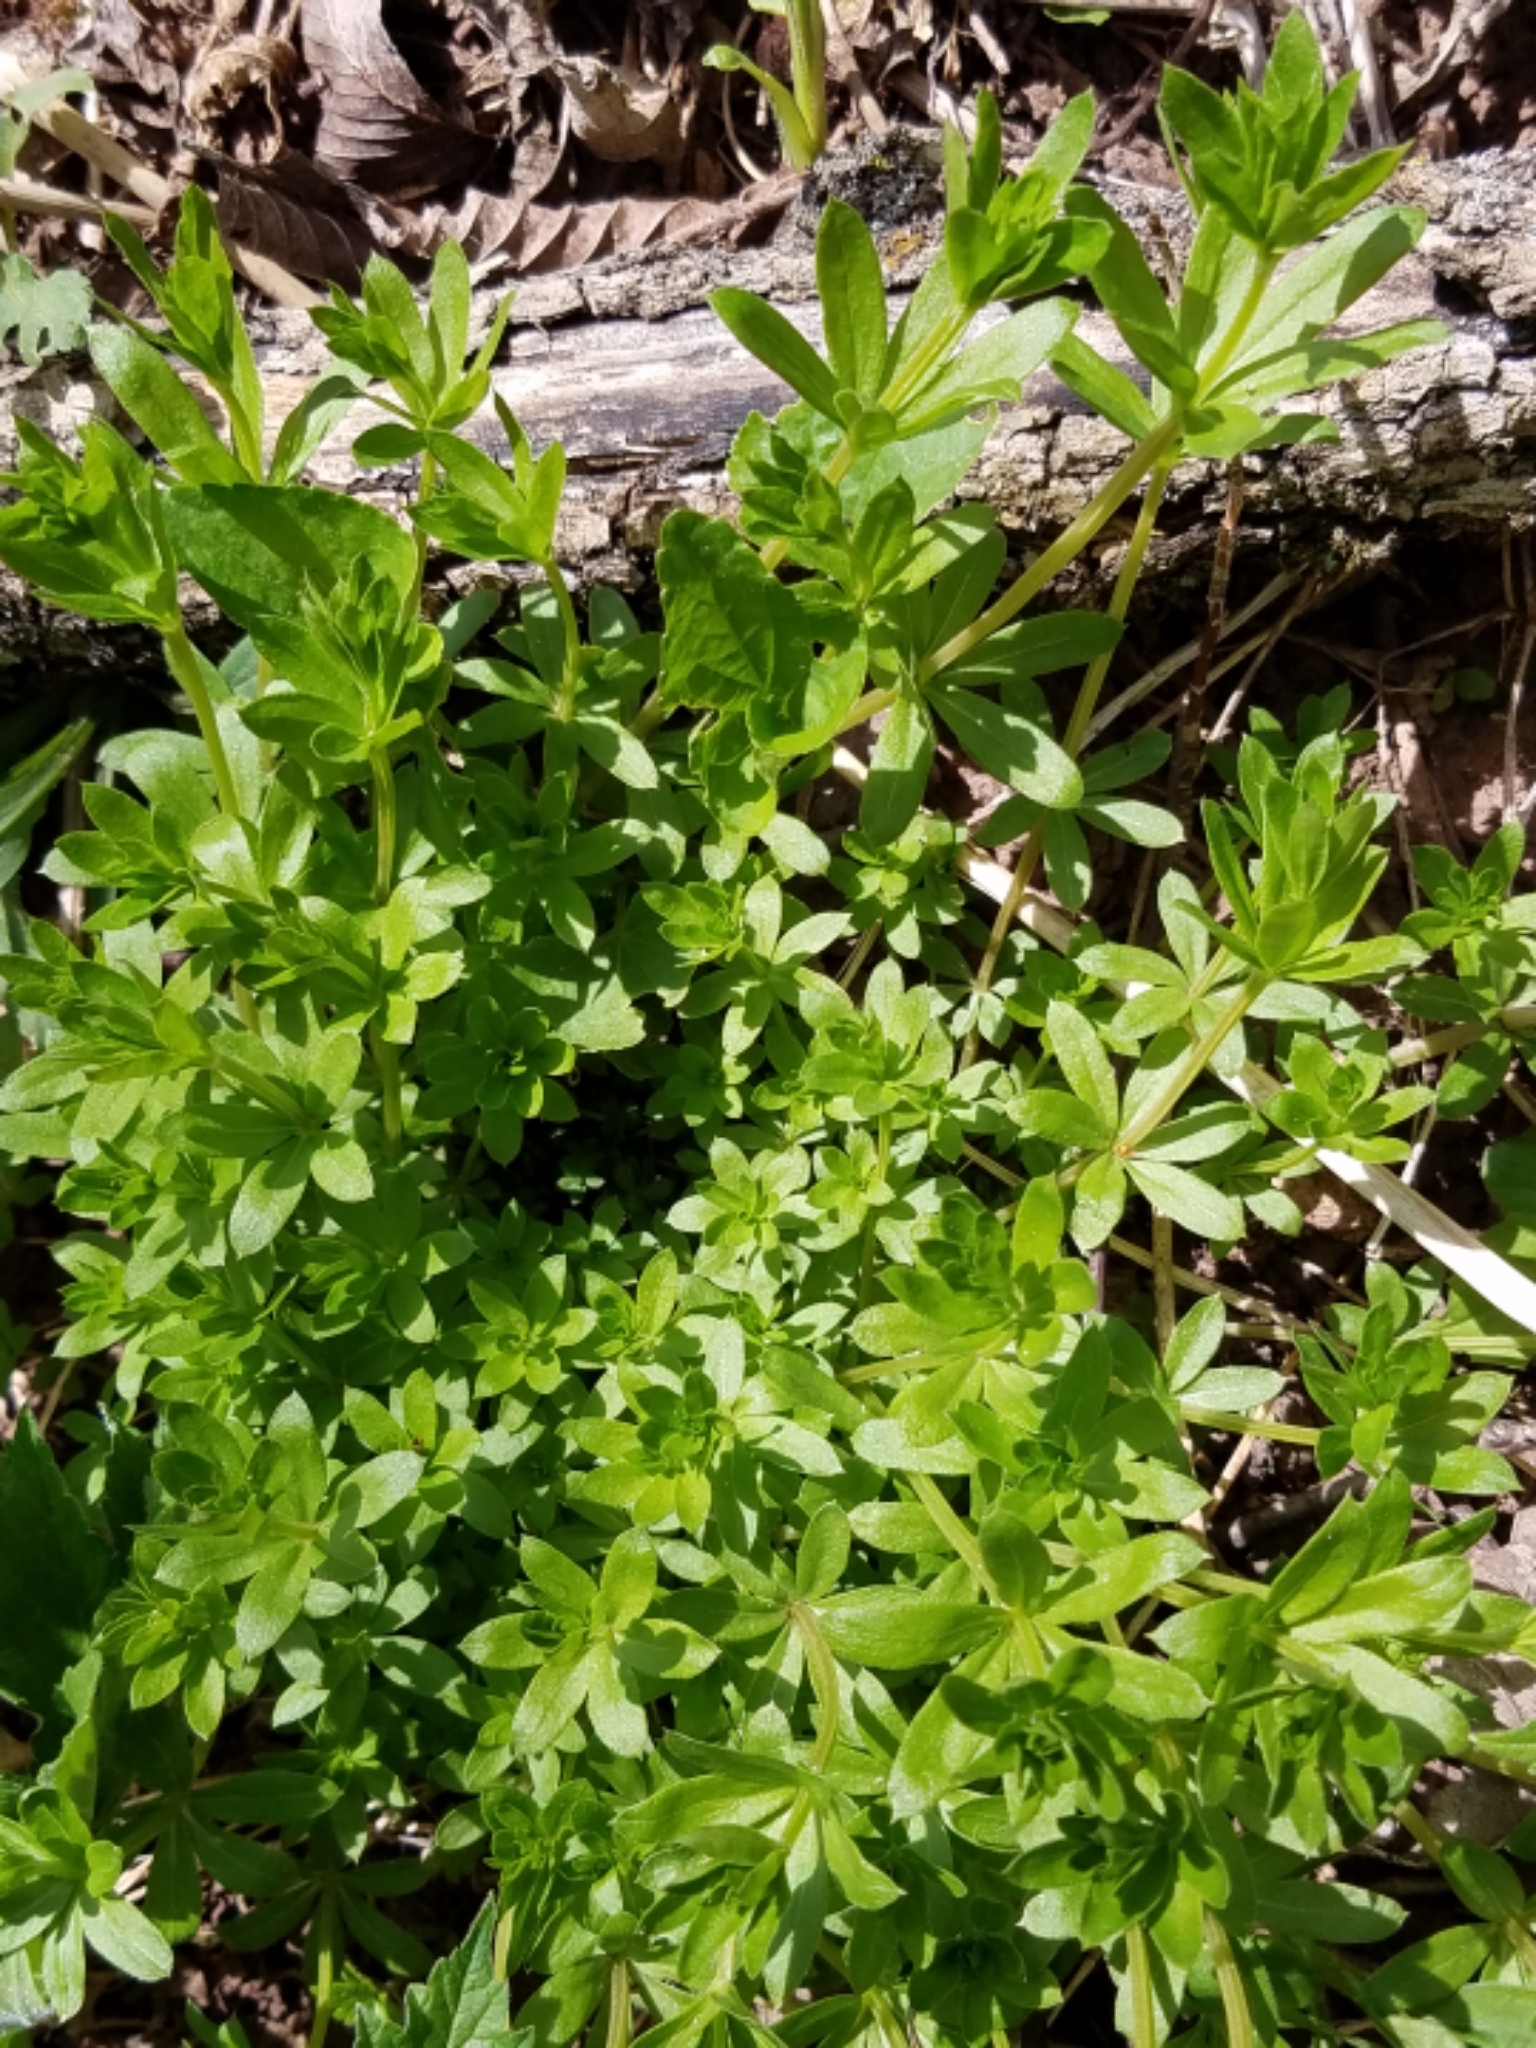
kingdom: Plantae
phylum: Tracheophyta
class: Magnoliopsida
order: Gentianales
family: Rubiaceae
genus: Galium
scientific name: Galium triflorum
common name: Fragrant bedstraw
